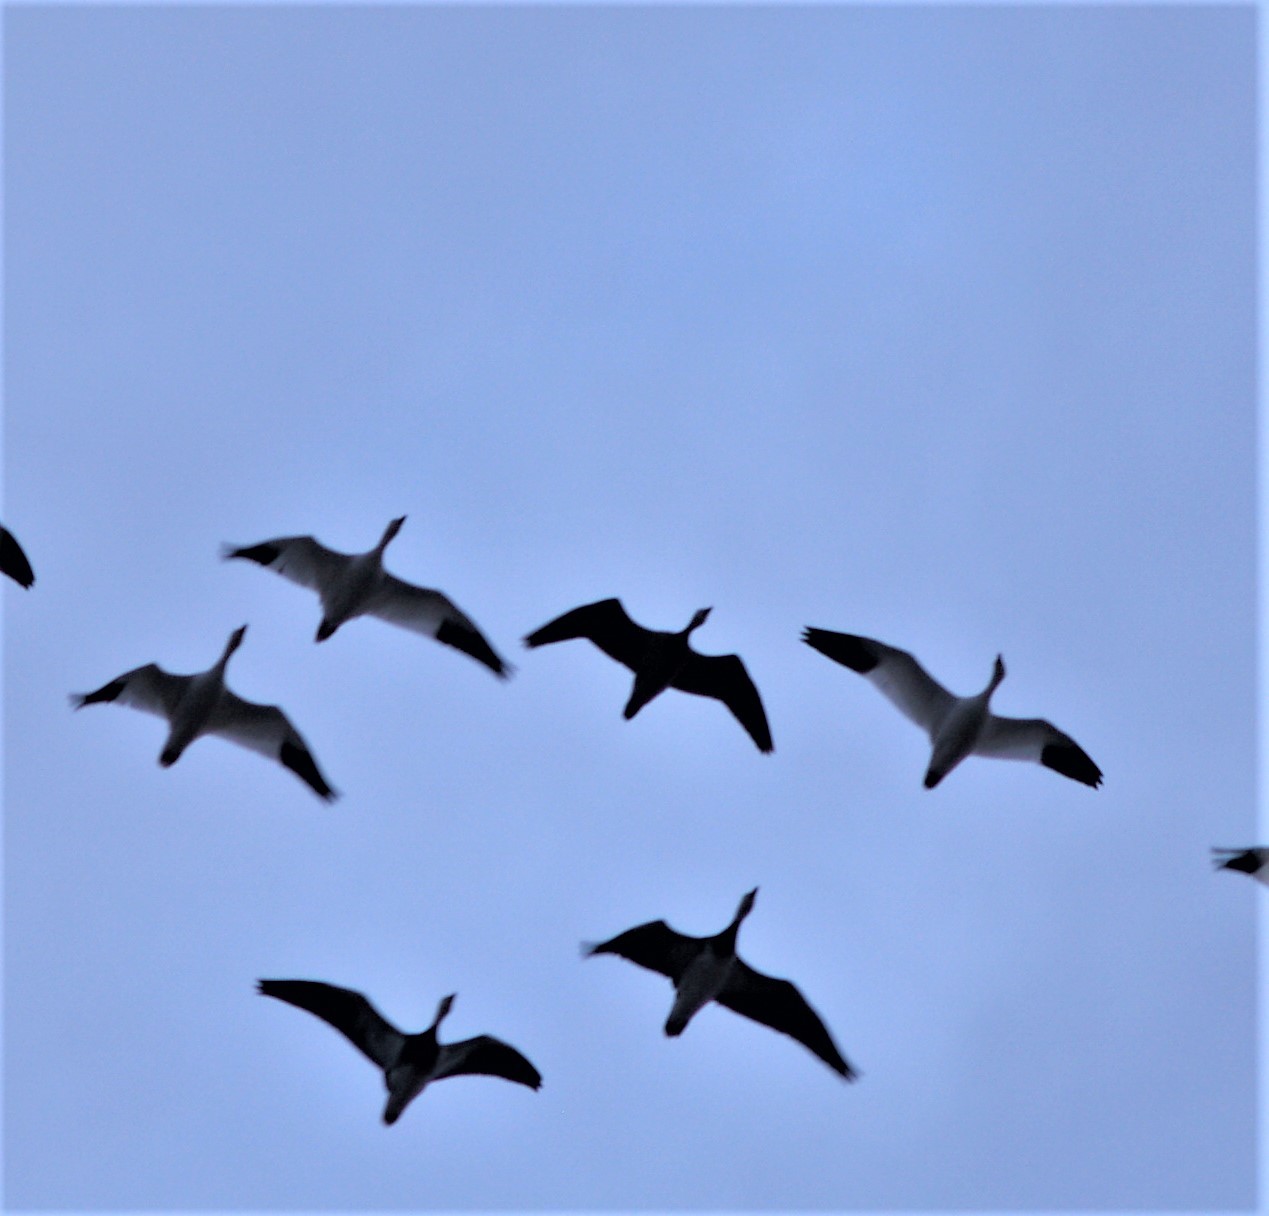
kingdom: Animalia
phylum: Chordata
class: Aves
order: Anseriformes
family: Anatidae
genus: Anser
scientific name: Anser caerulescens
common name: Snow goose
